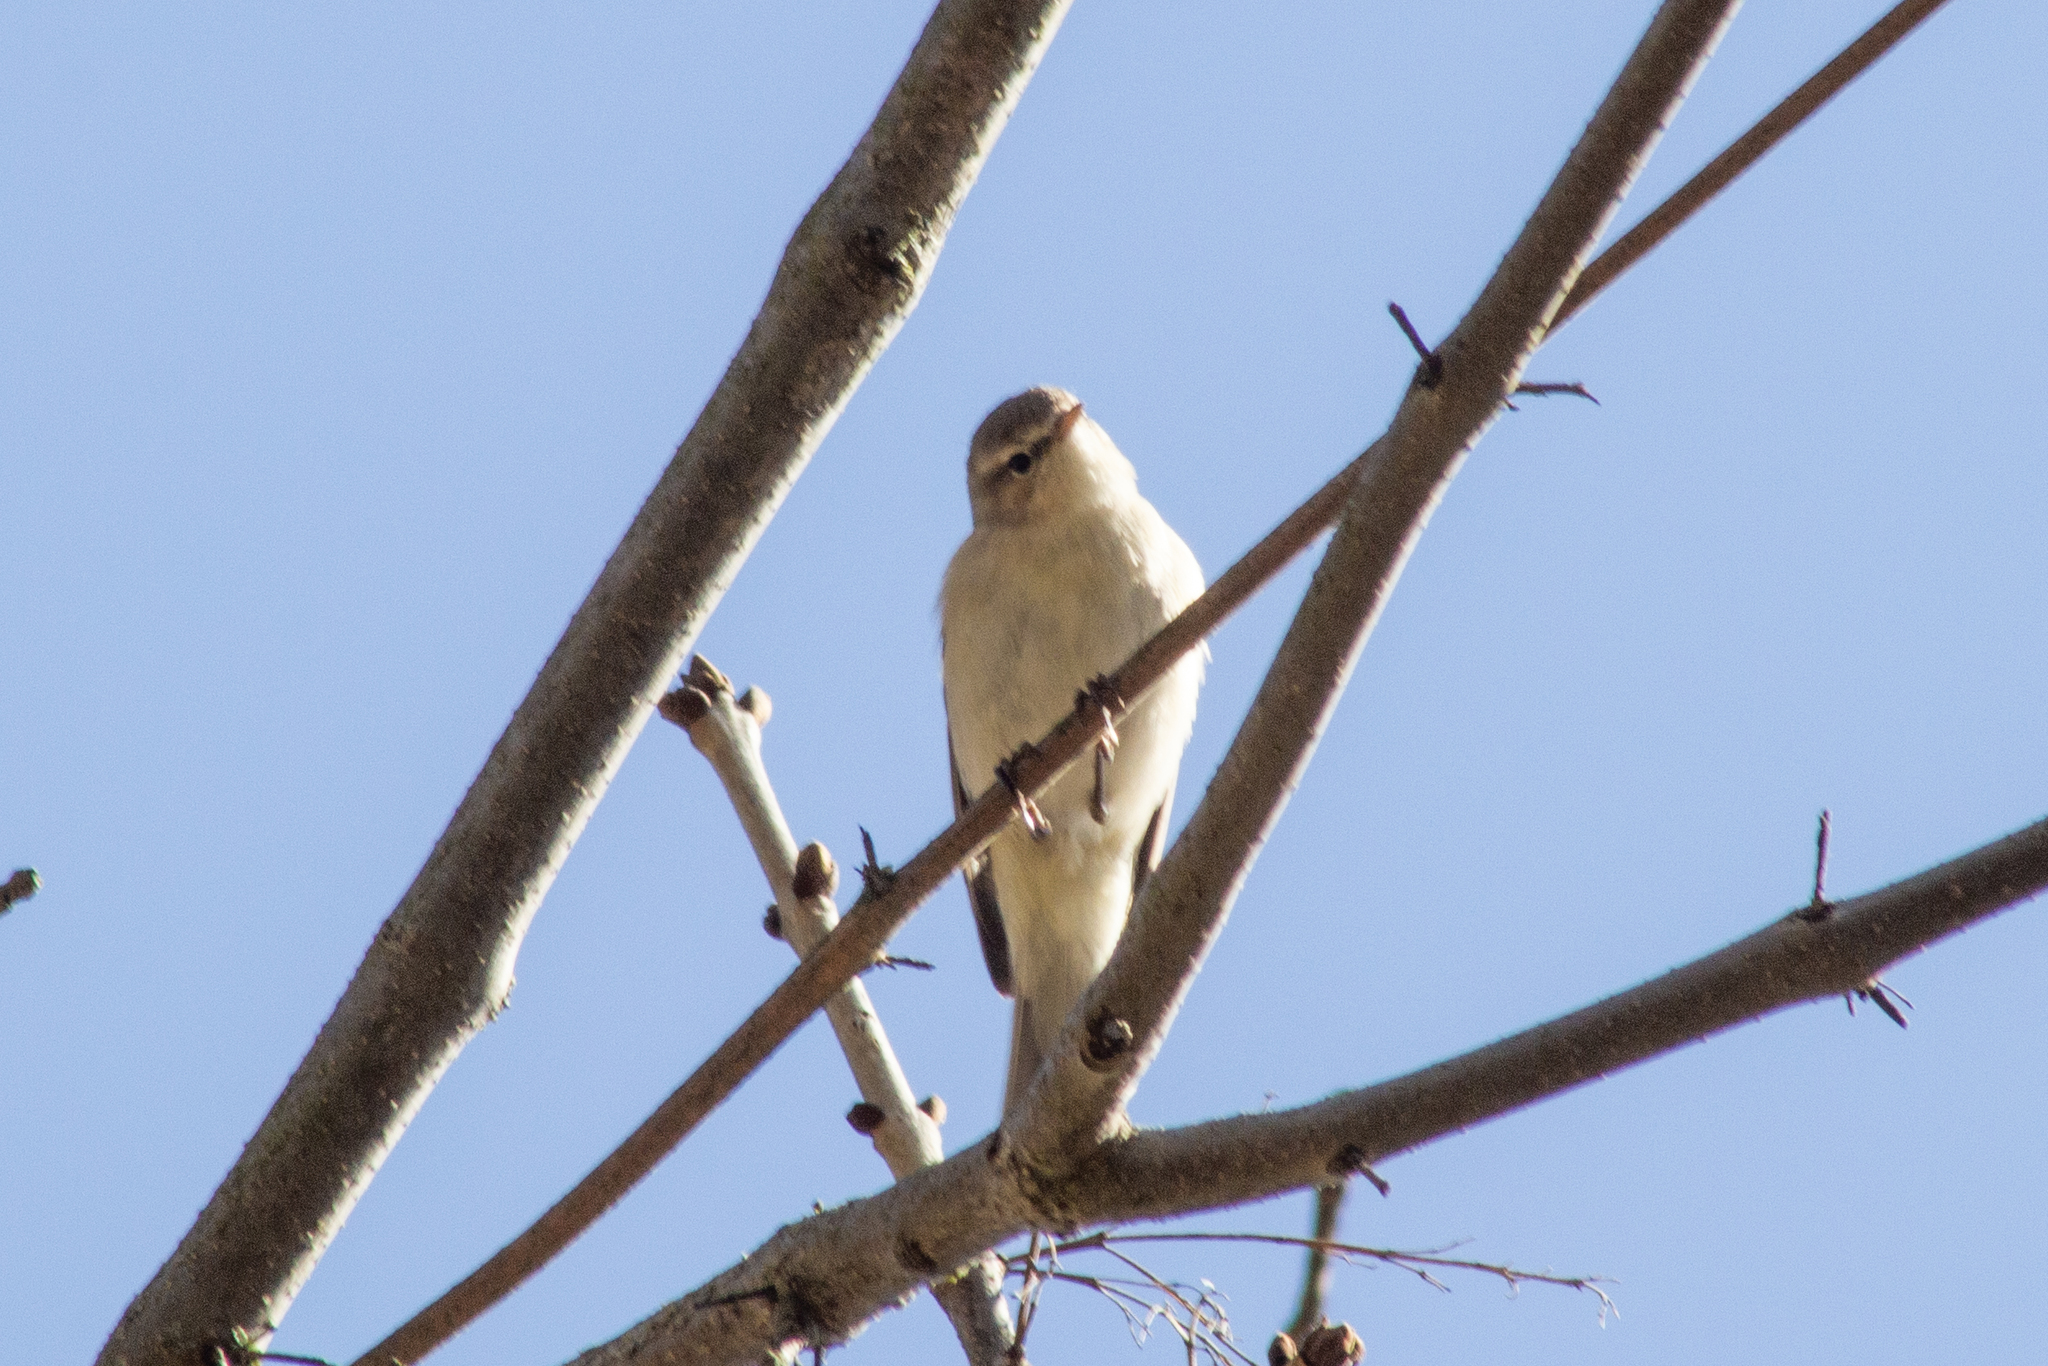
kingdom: Animalia
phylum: Chordata
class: Aves
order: Passeriformes
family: Phylloscopidae
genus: Phylloscopus
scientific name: Phylloscopus collybita
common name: Common chiffchaff
